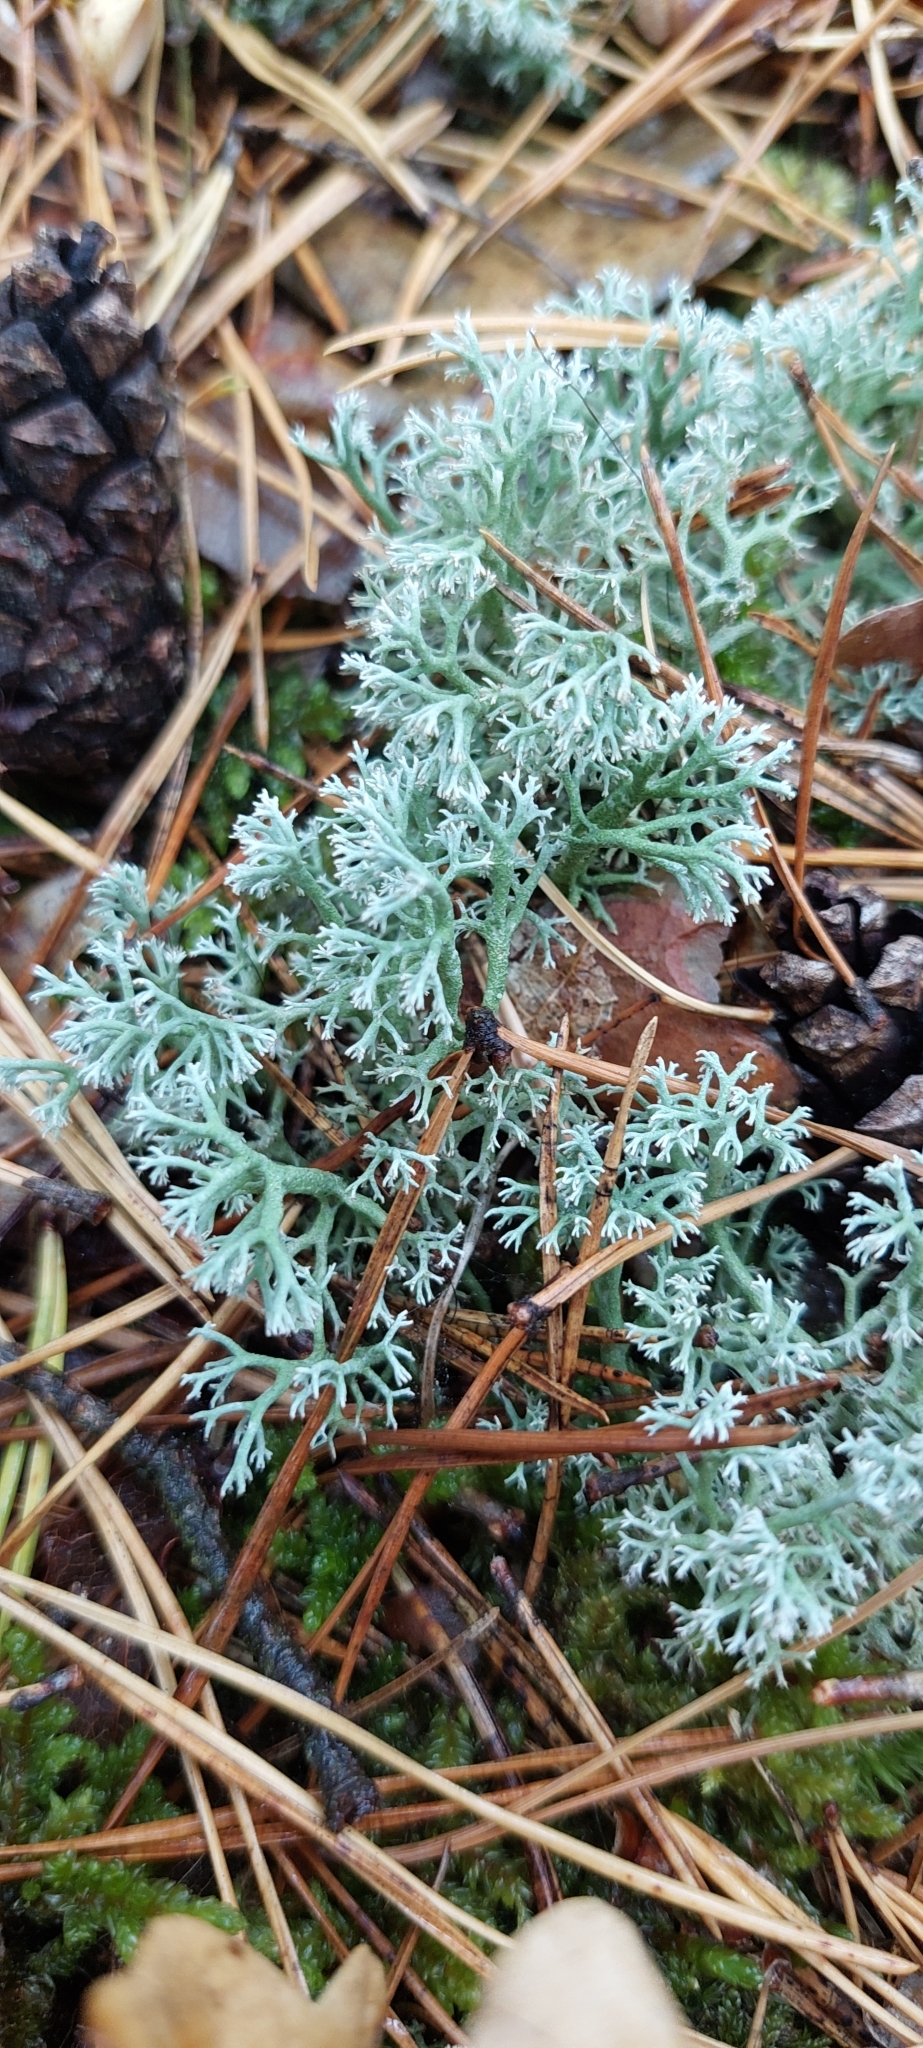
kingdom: Fungi
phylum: Ascomycota
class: Lecanoromycetes
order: Lecanorales
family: Cladoniaceae
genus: Cladonia
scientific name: Cladonia arbuscula
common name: Reindeer lichen
